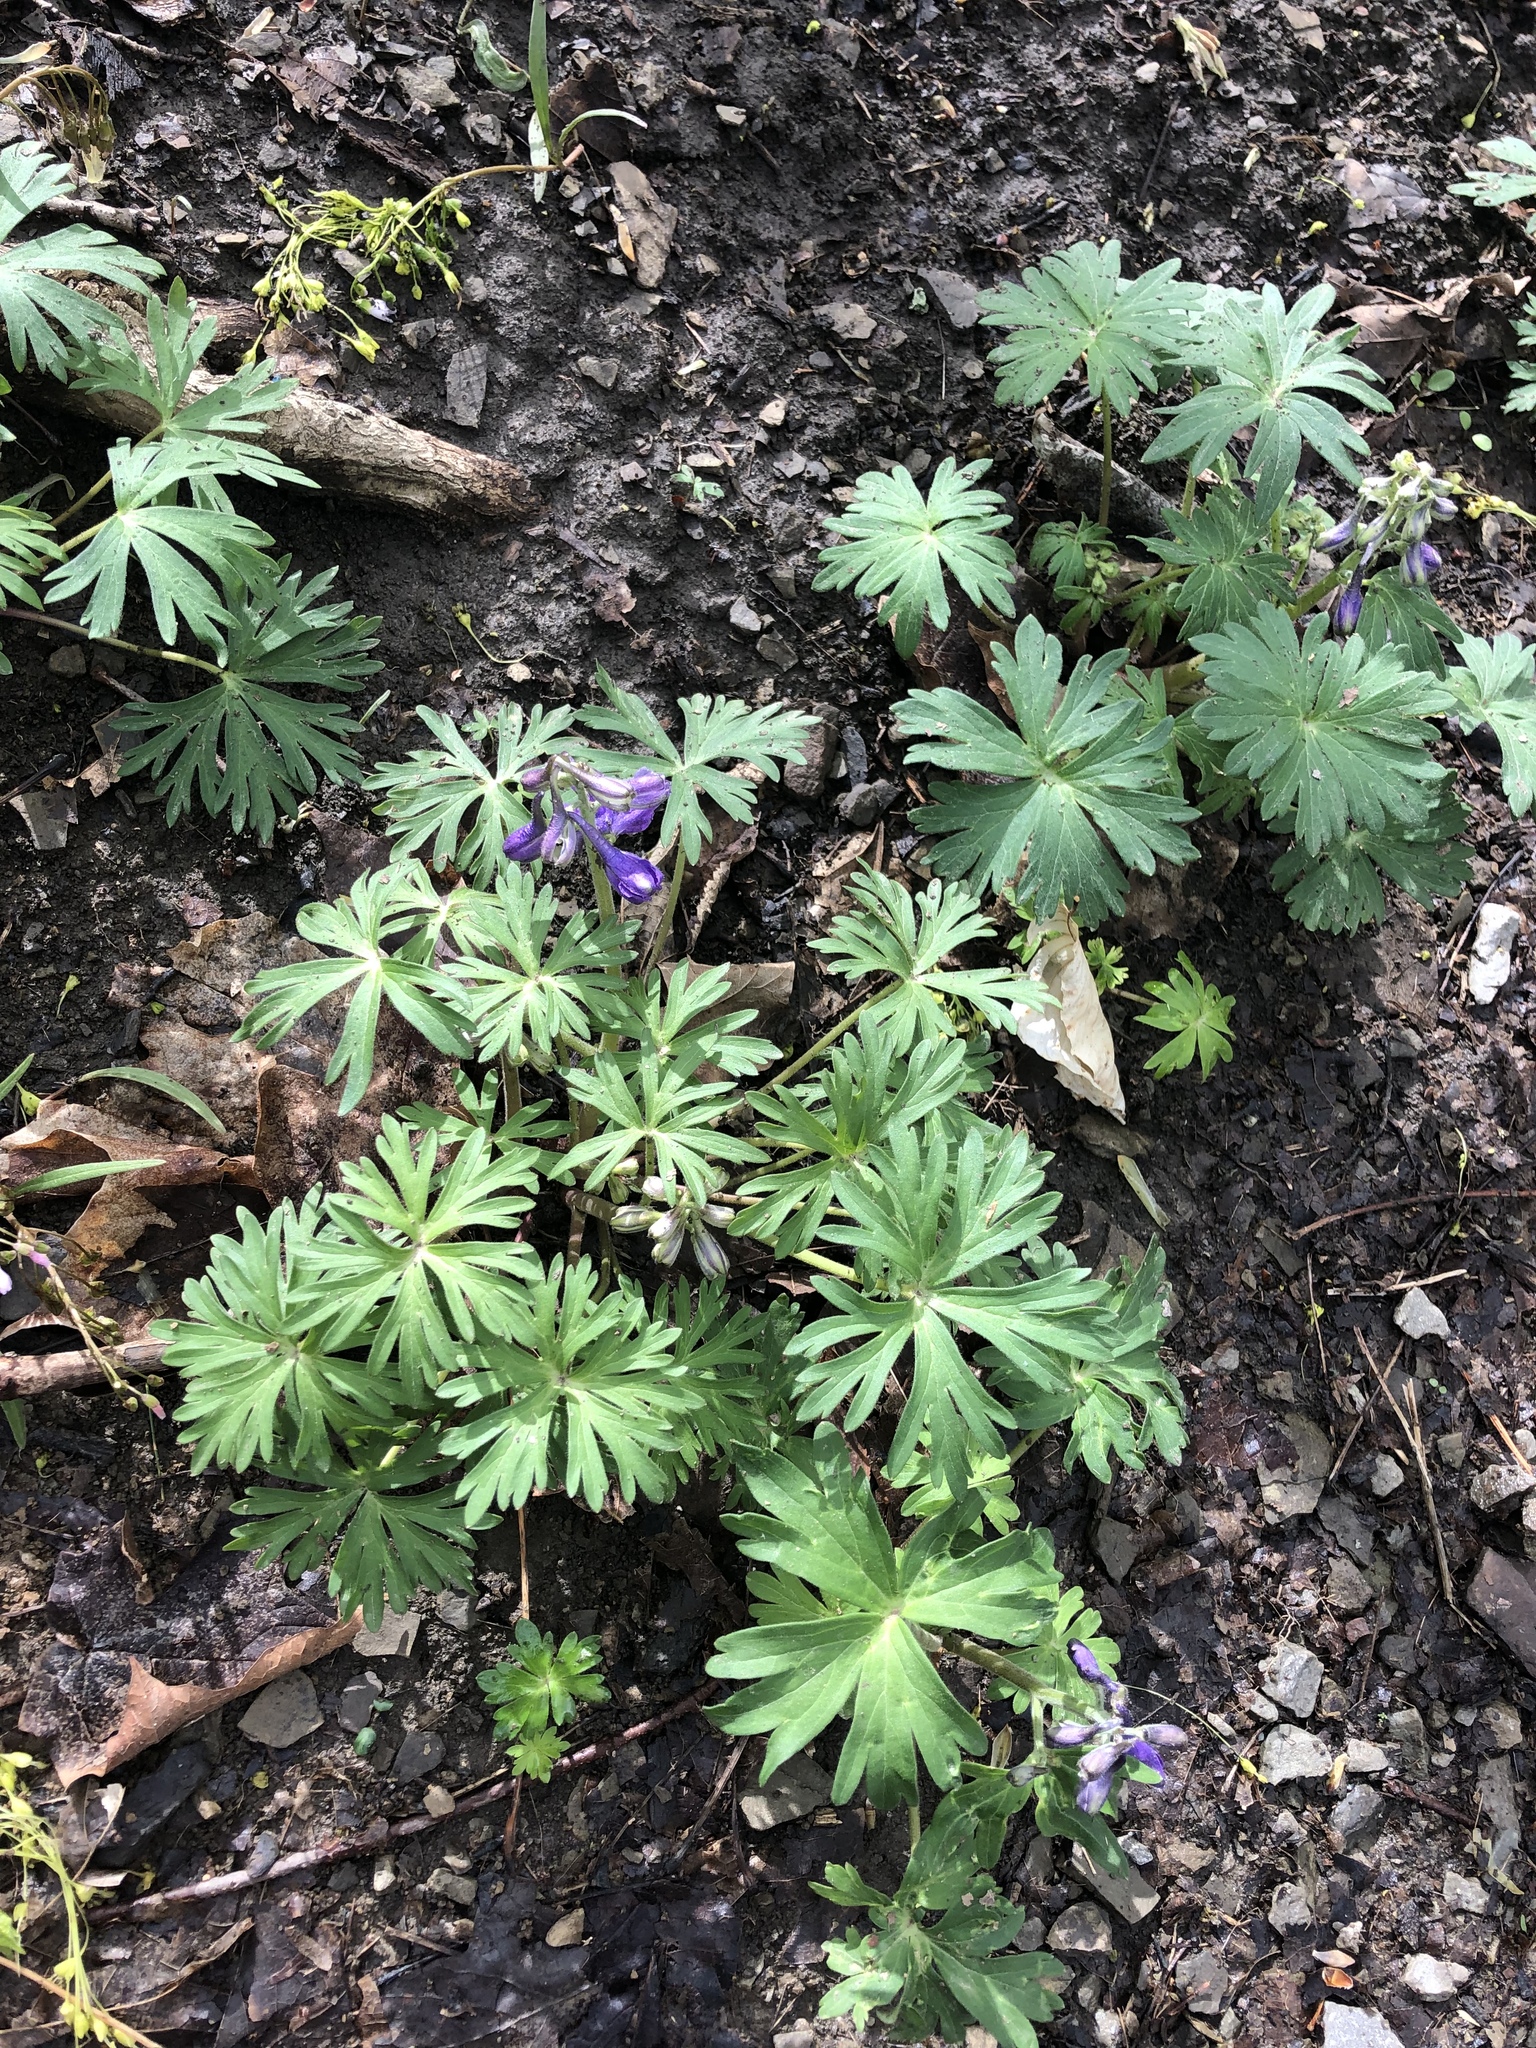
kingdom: Plantae
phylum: Tracheophyta
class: Magnoliopsida
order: Ranunculales
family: Ranunculaceae
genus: Delphinium
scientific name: Delphinium tricorne
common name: Dwarf larkspur
